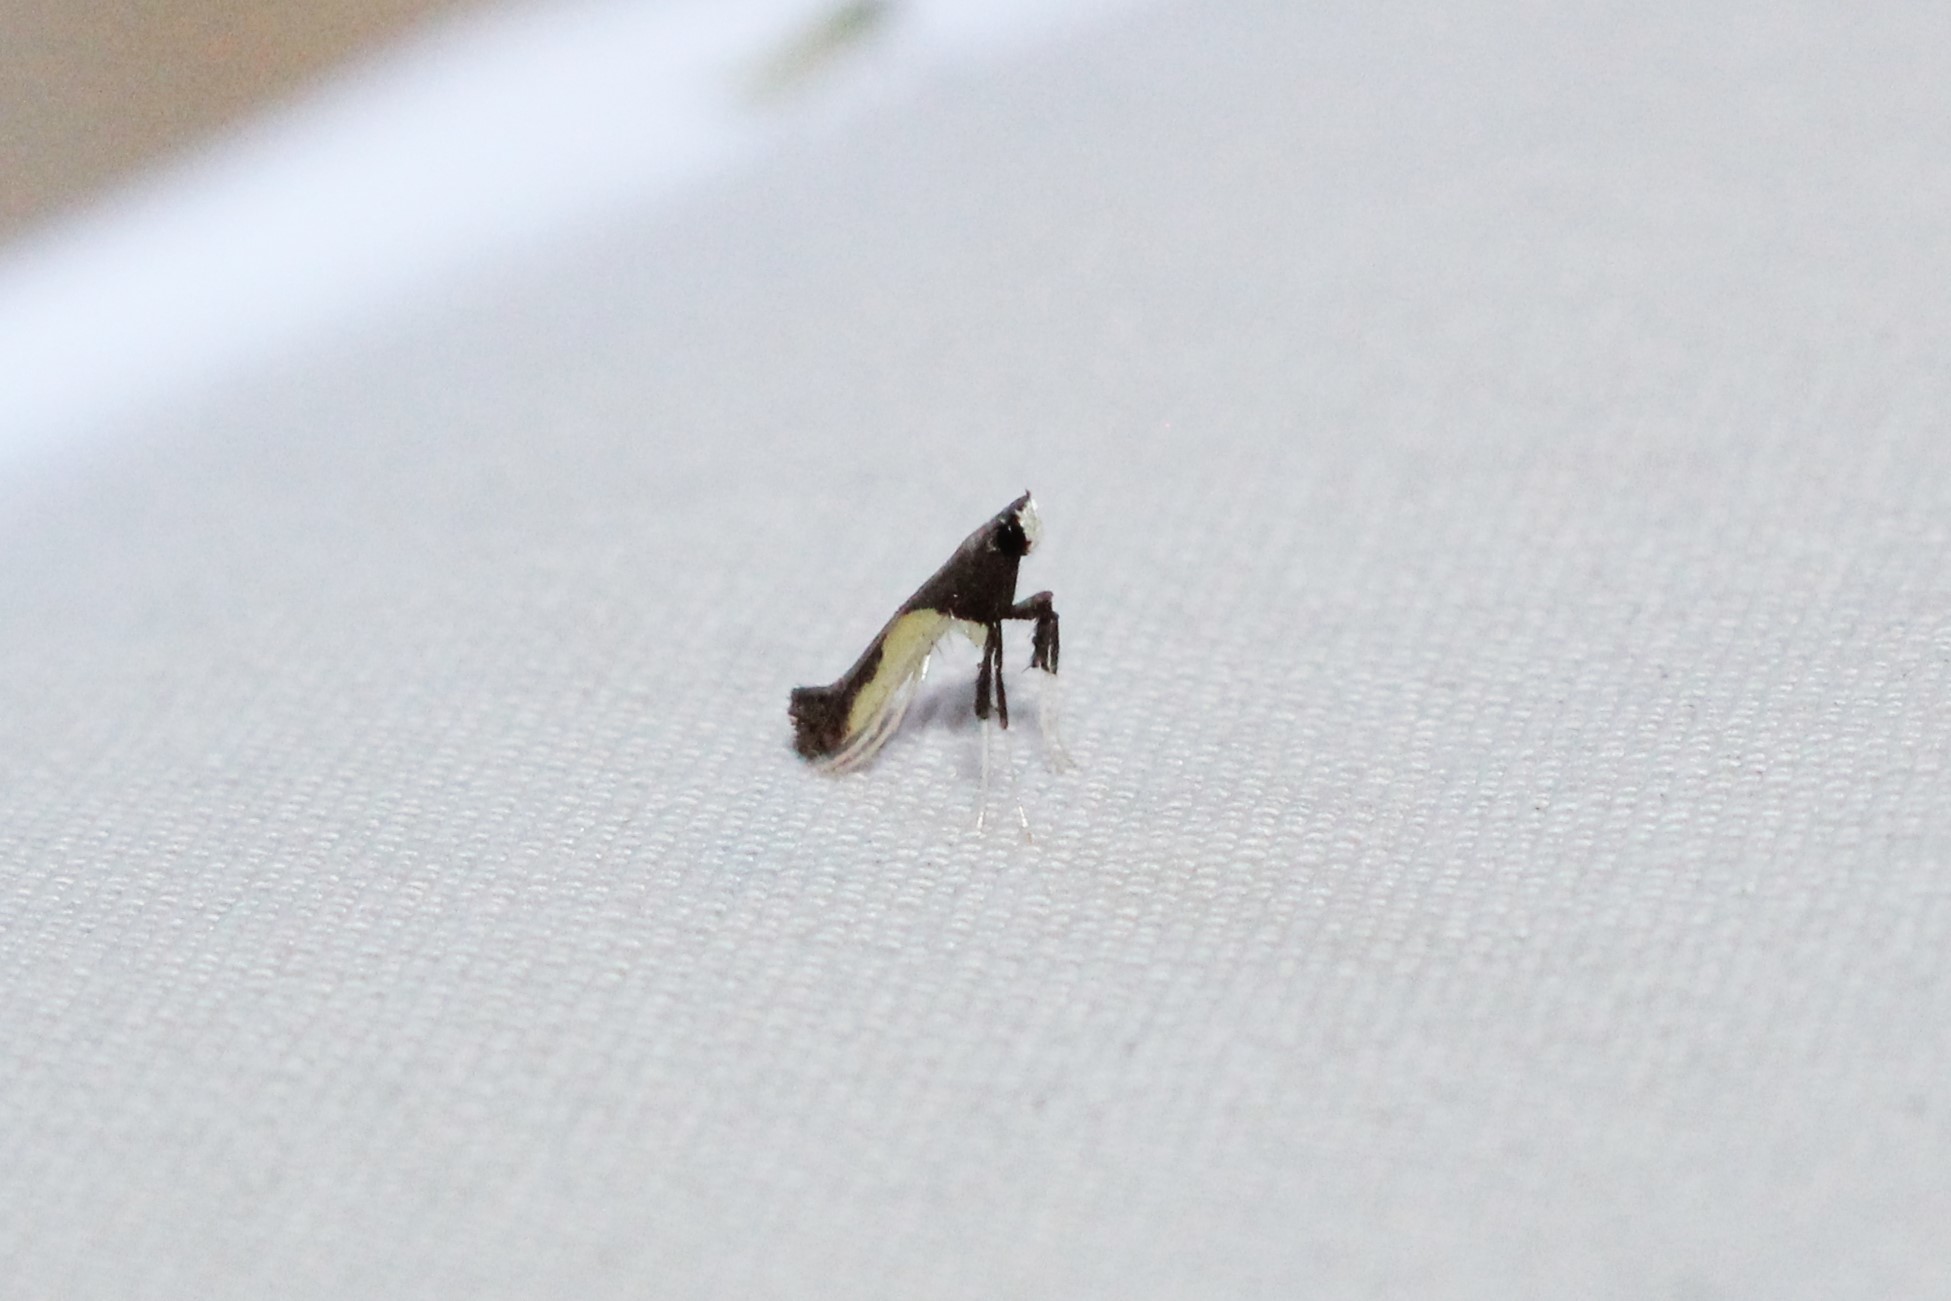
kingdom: Animalia
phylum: Arthropoda
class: Insecta
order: Lepidoptera
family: Gracillariidae
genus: Caloptilia
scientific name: Caloptilia belfragella
